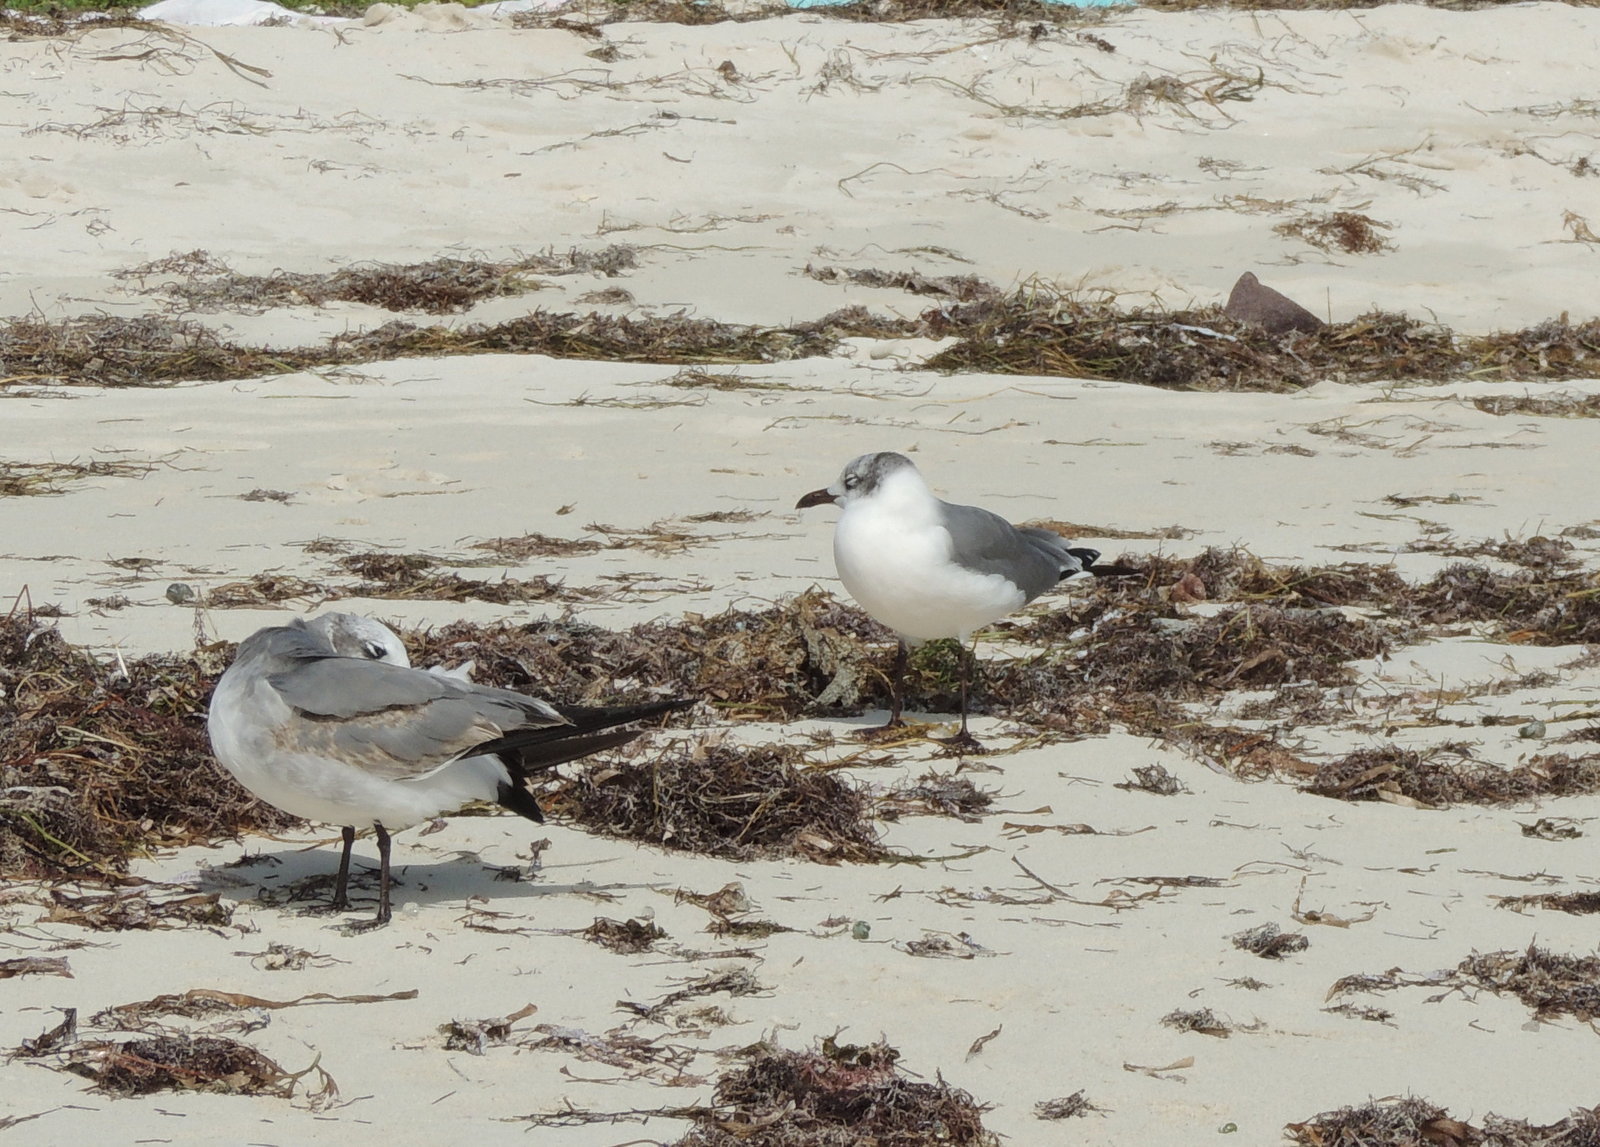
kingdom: Animalia
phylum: Chordata
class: Aves
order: Charadriiformes
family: Laridae
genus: Leucophaeus
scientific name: Leucophaeus atricilla
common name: Laughing gull
